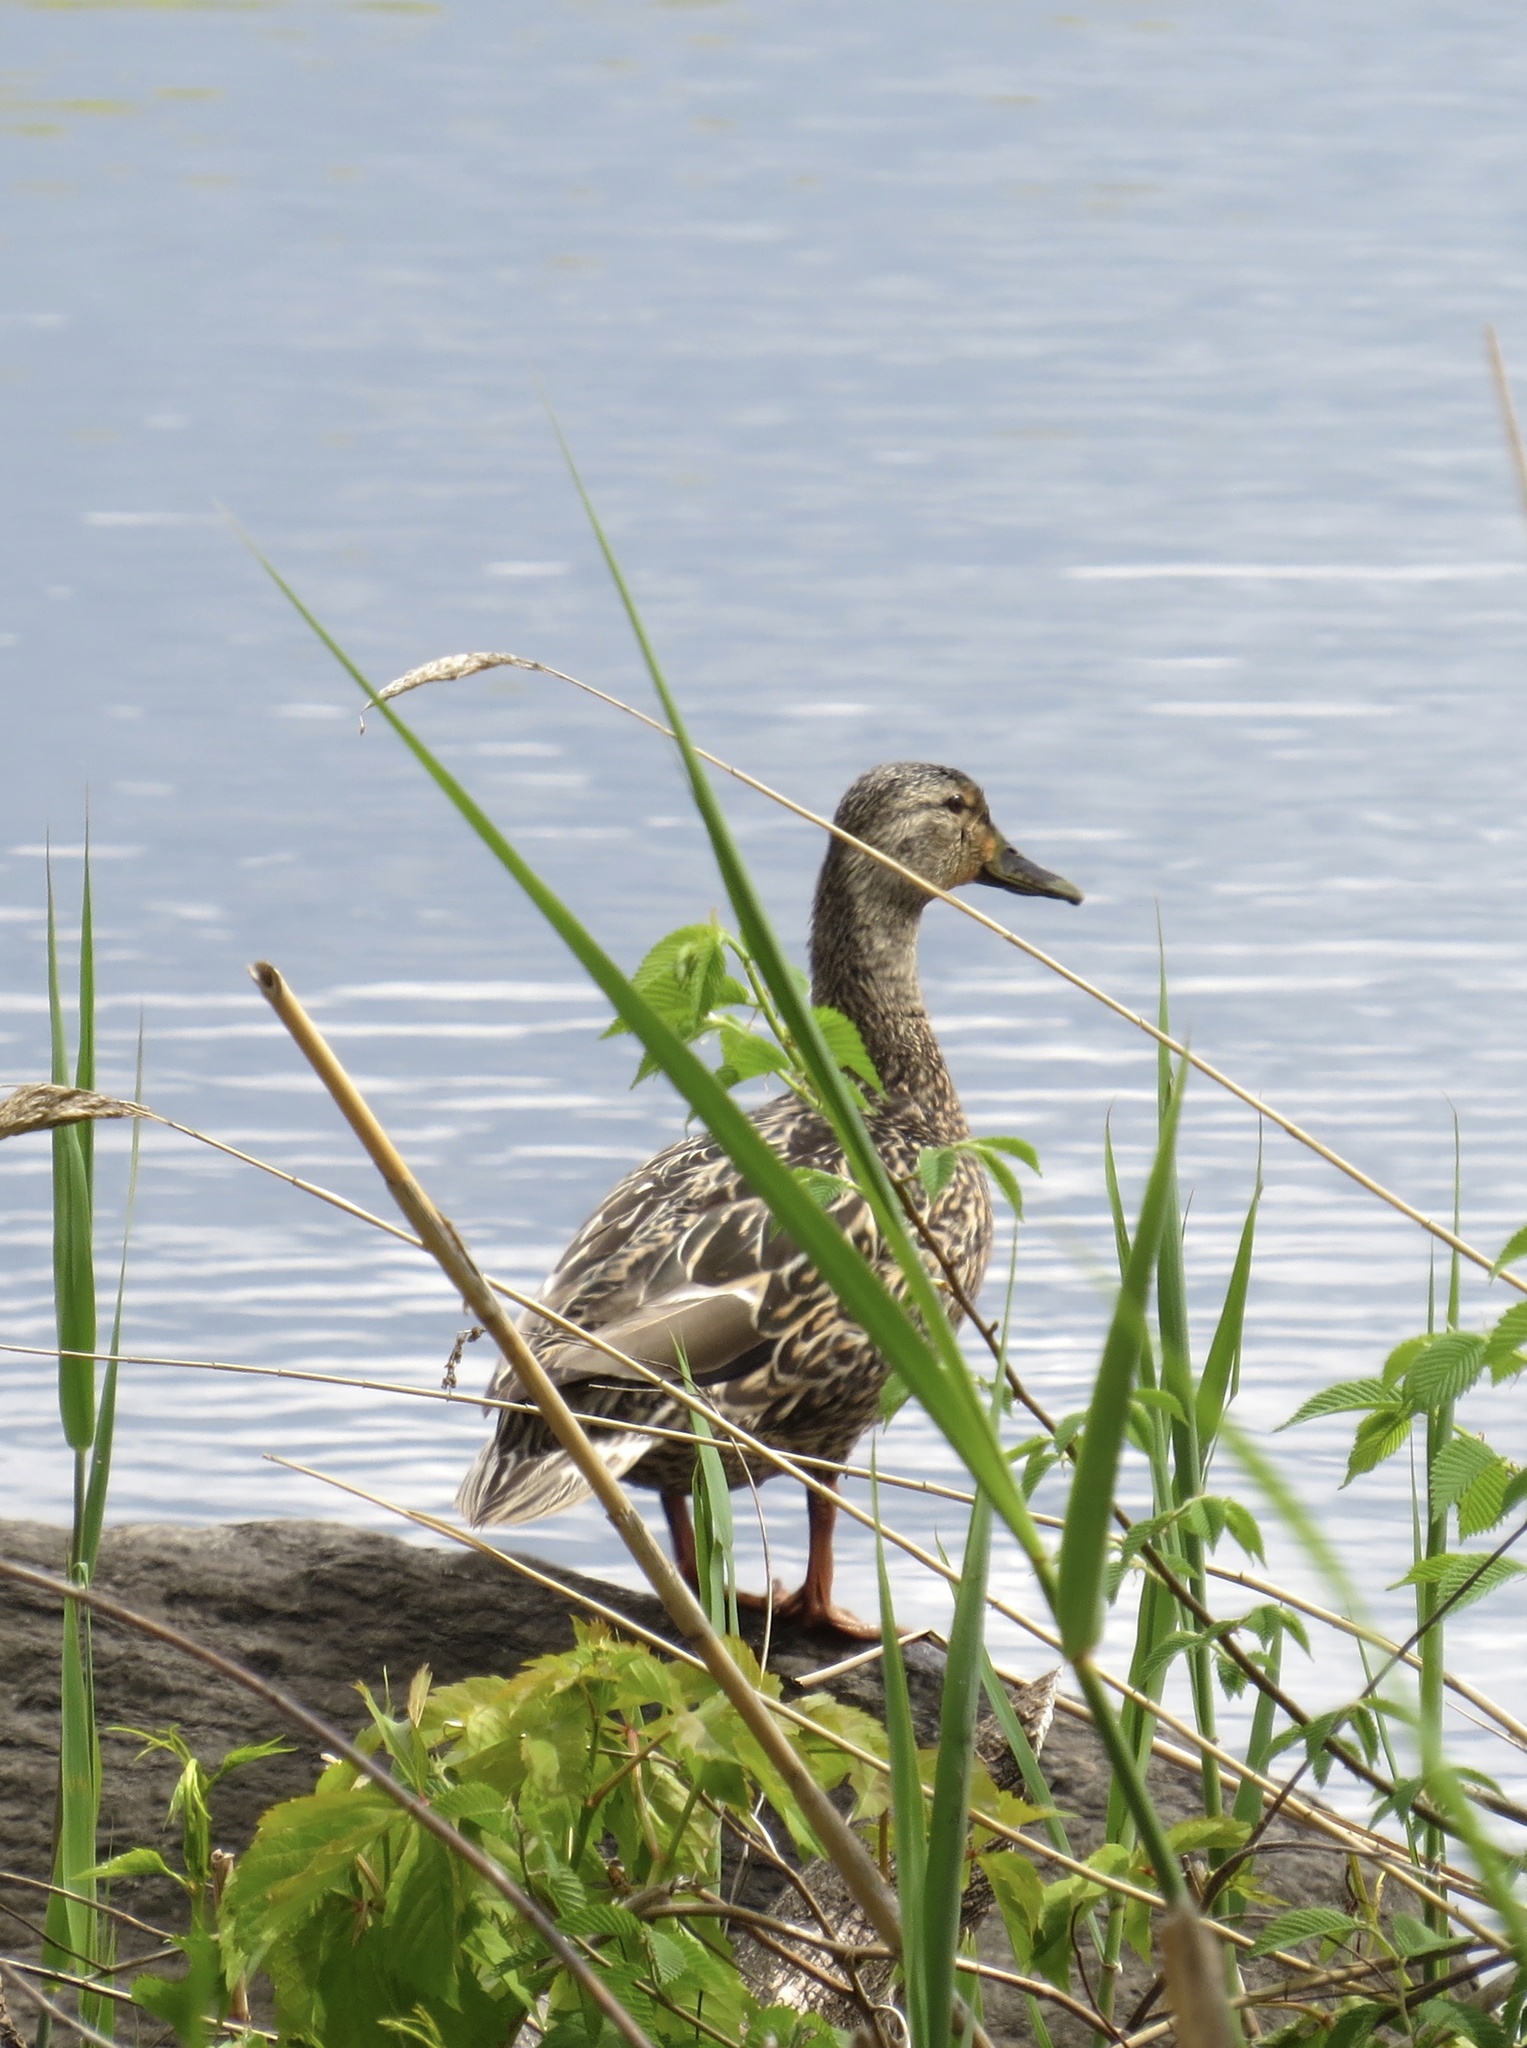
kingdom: Animalia
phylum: Chordata
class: Aves
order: Anseriformes
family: Anatidae
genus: Anas
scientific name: Anas platyrhynchos
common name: Mallard
